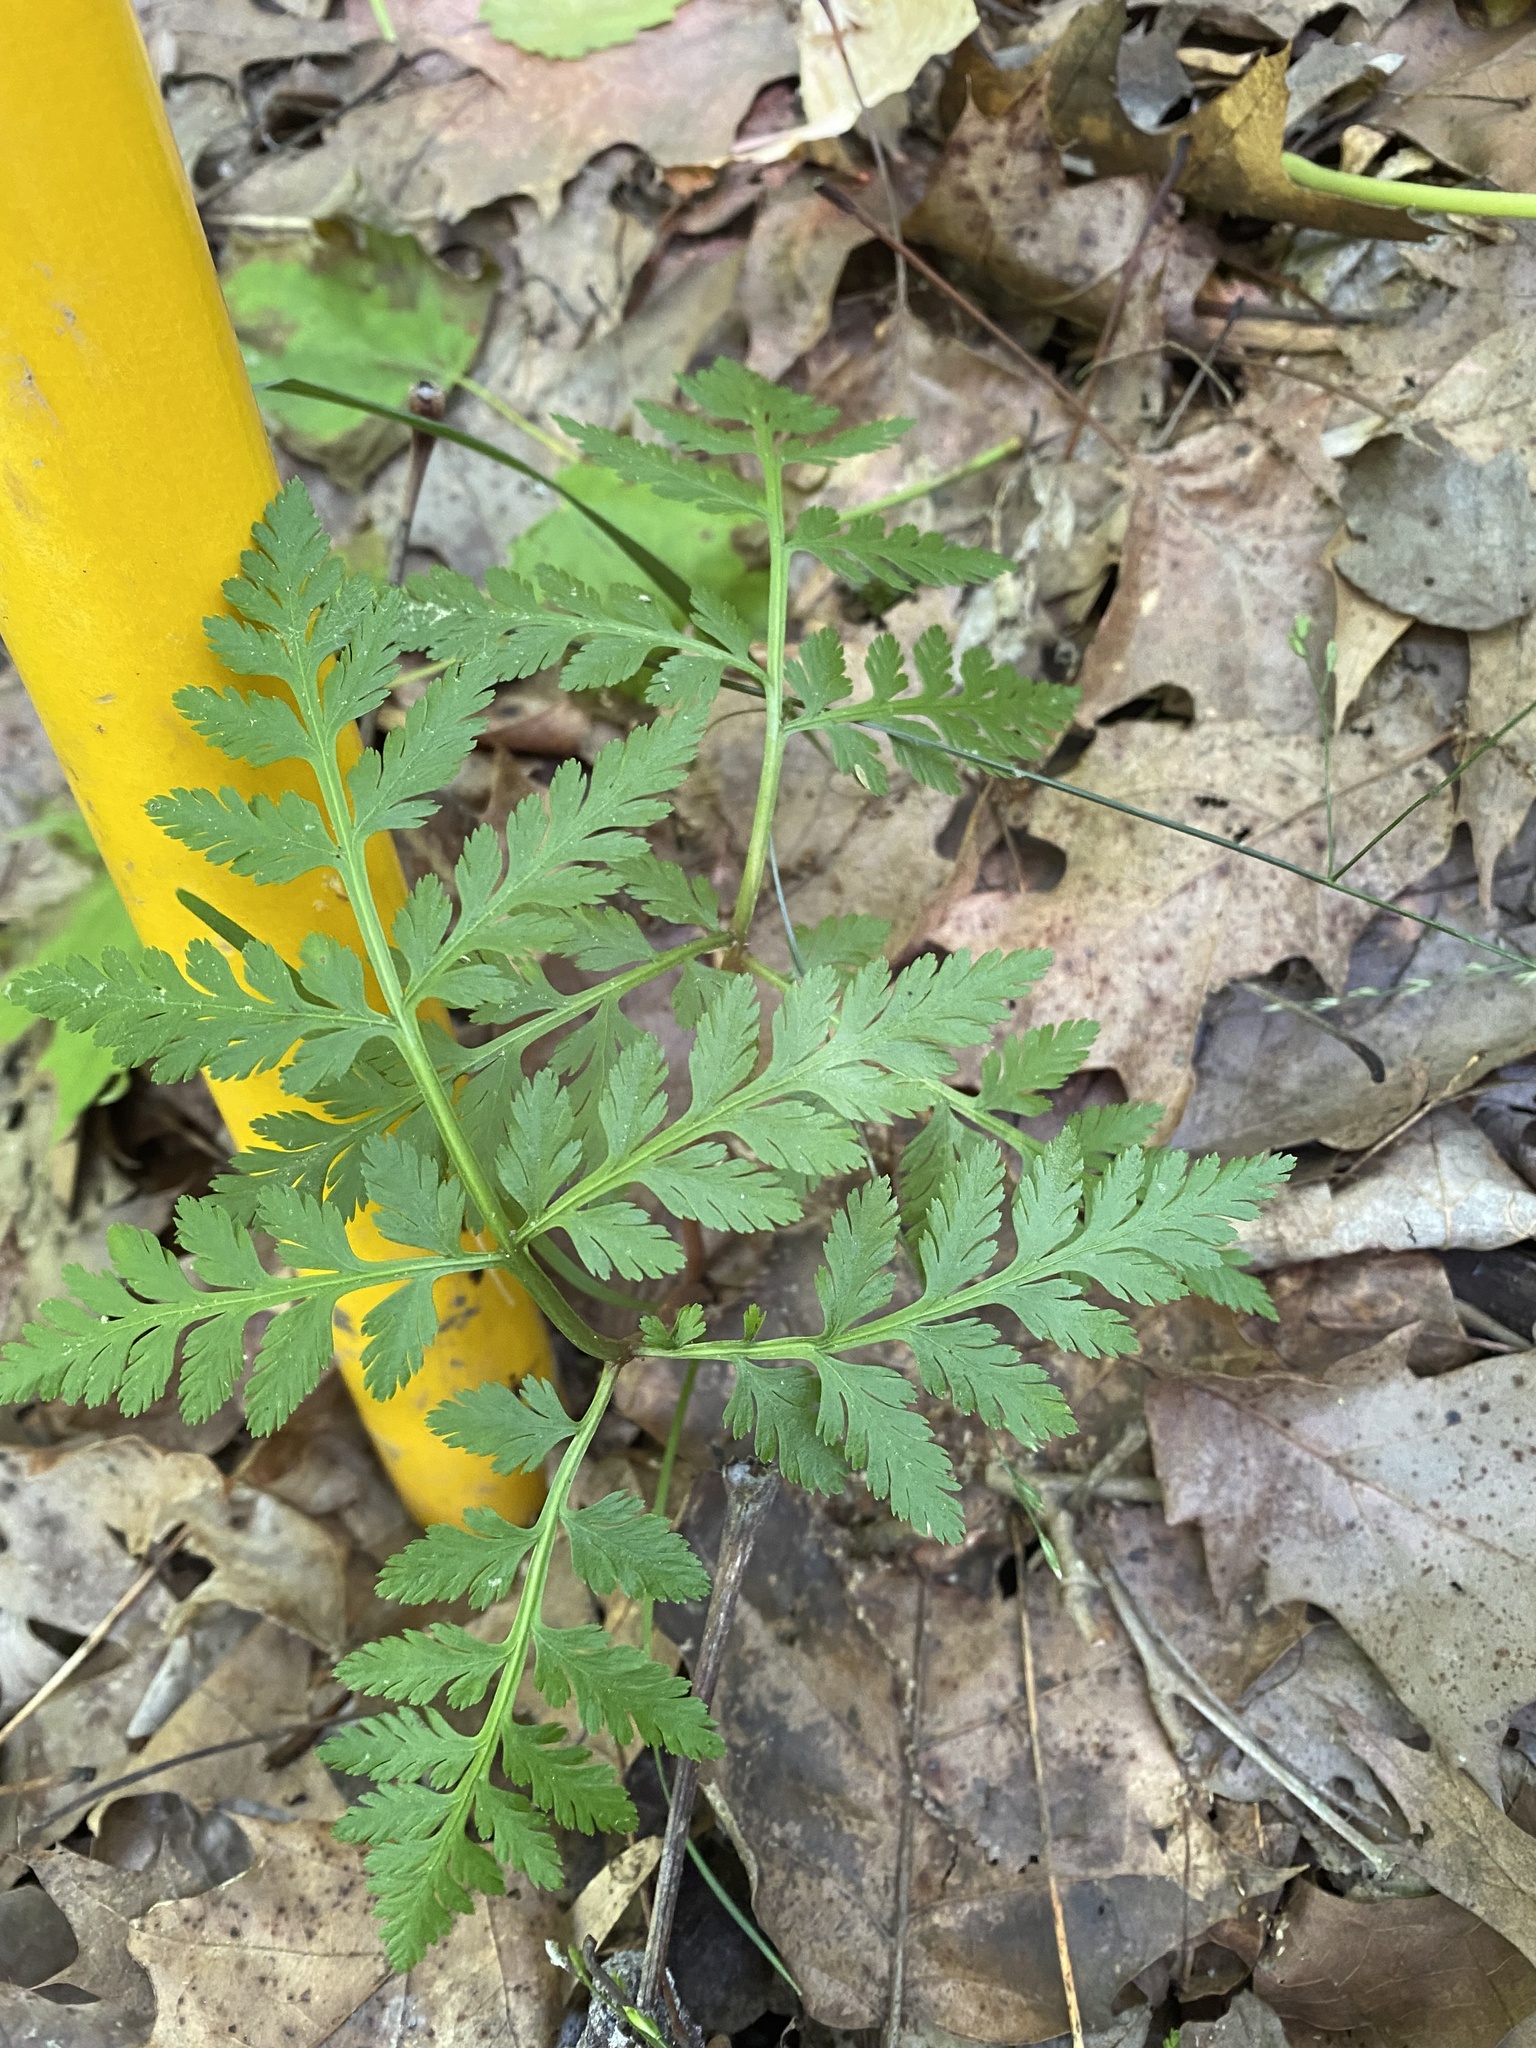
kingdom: Plantae
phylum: Tracheophyta
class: Polypodiopsida
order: Ophioglossales
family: Ophioglossaceae
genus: Botrypus
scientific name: Botrypus virginianus
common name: Common grapefern
